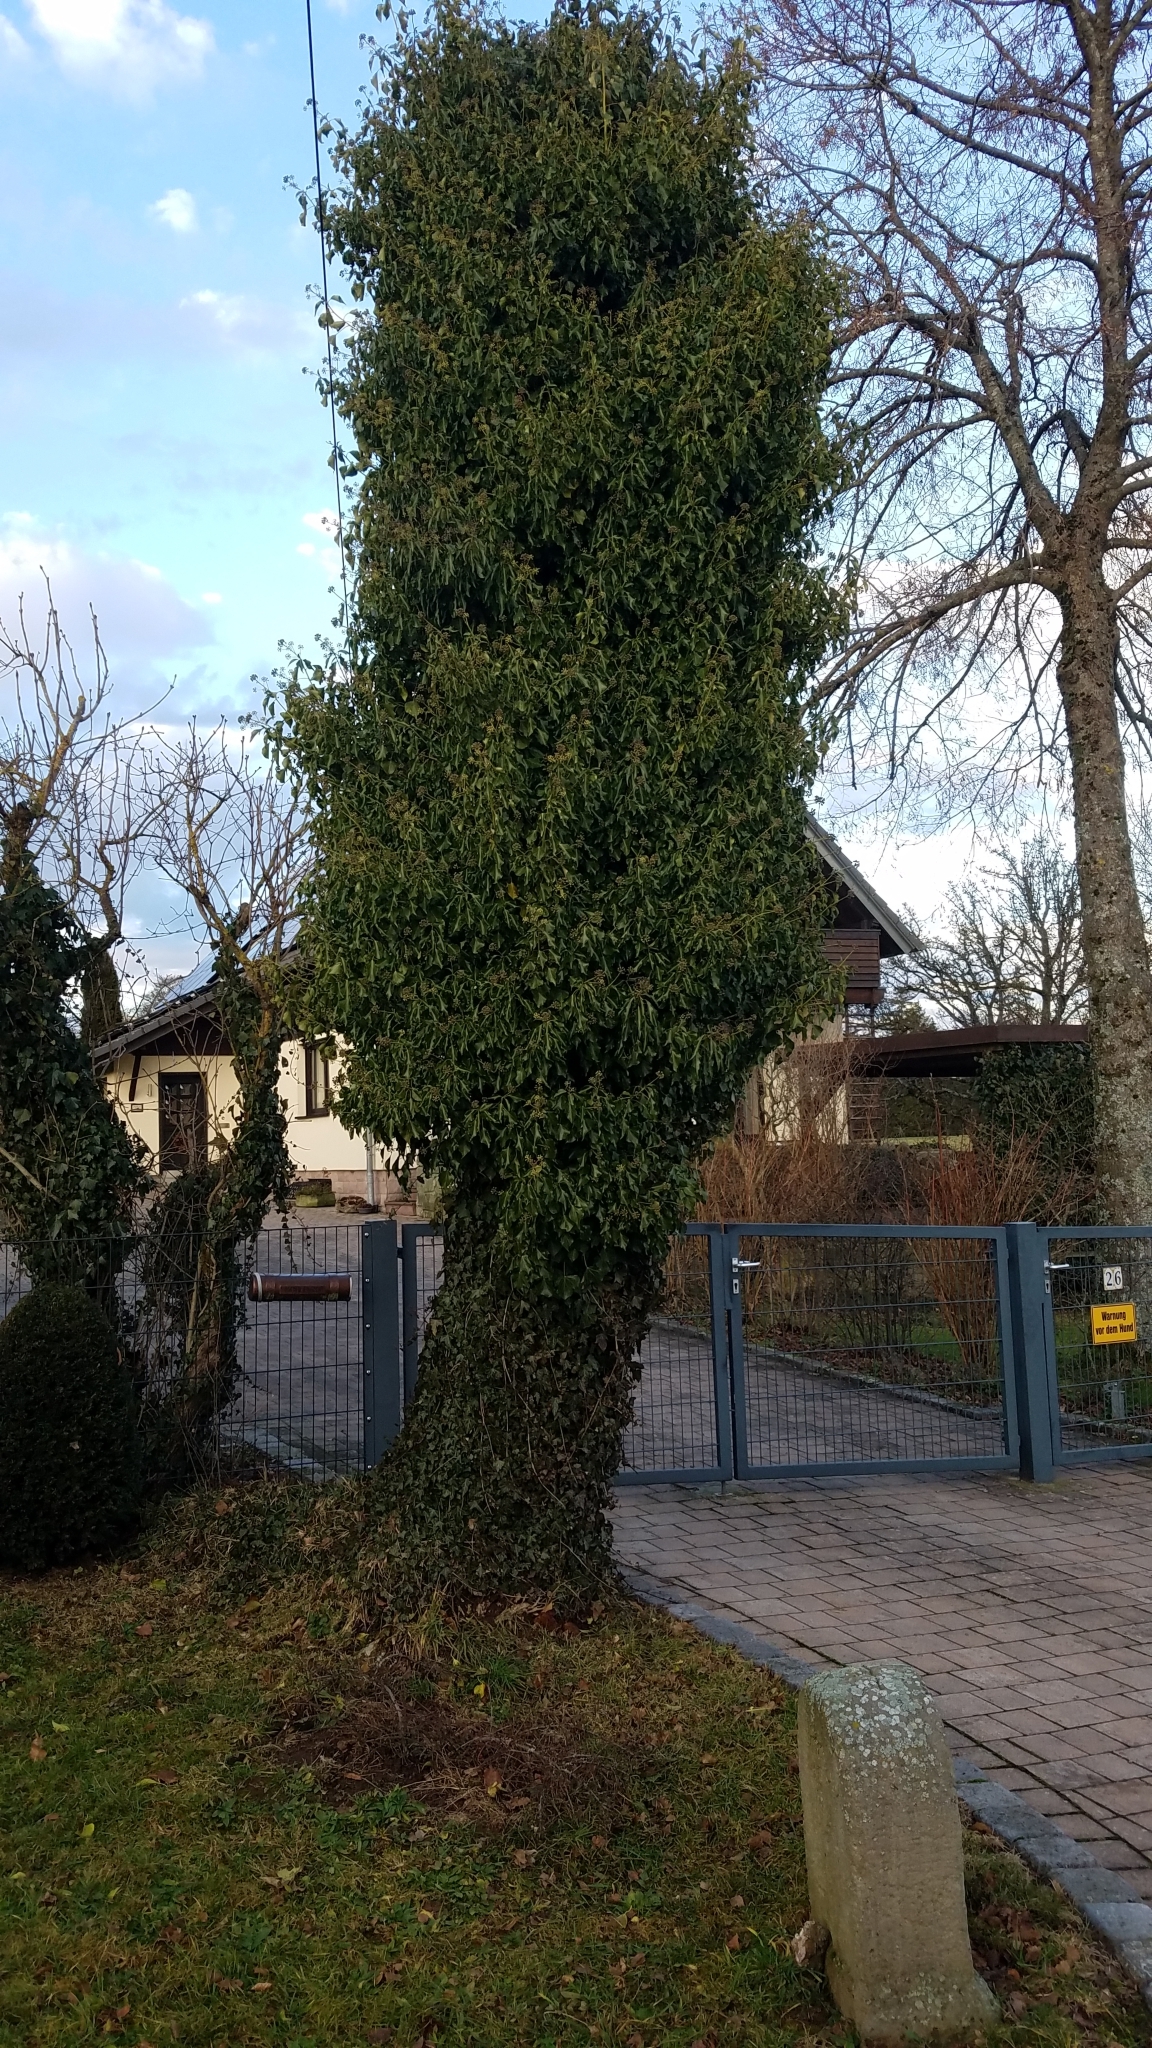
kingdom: Plantae
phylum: Tracheophyta
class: Magnoliopsida
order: Apiales
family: Araliaceae
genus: Hedera
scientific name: Hedera helix
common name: Ivy
